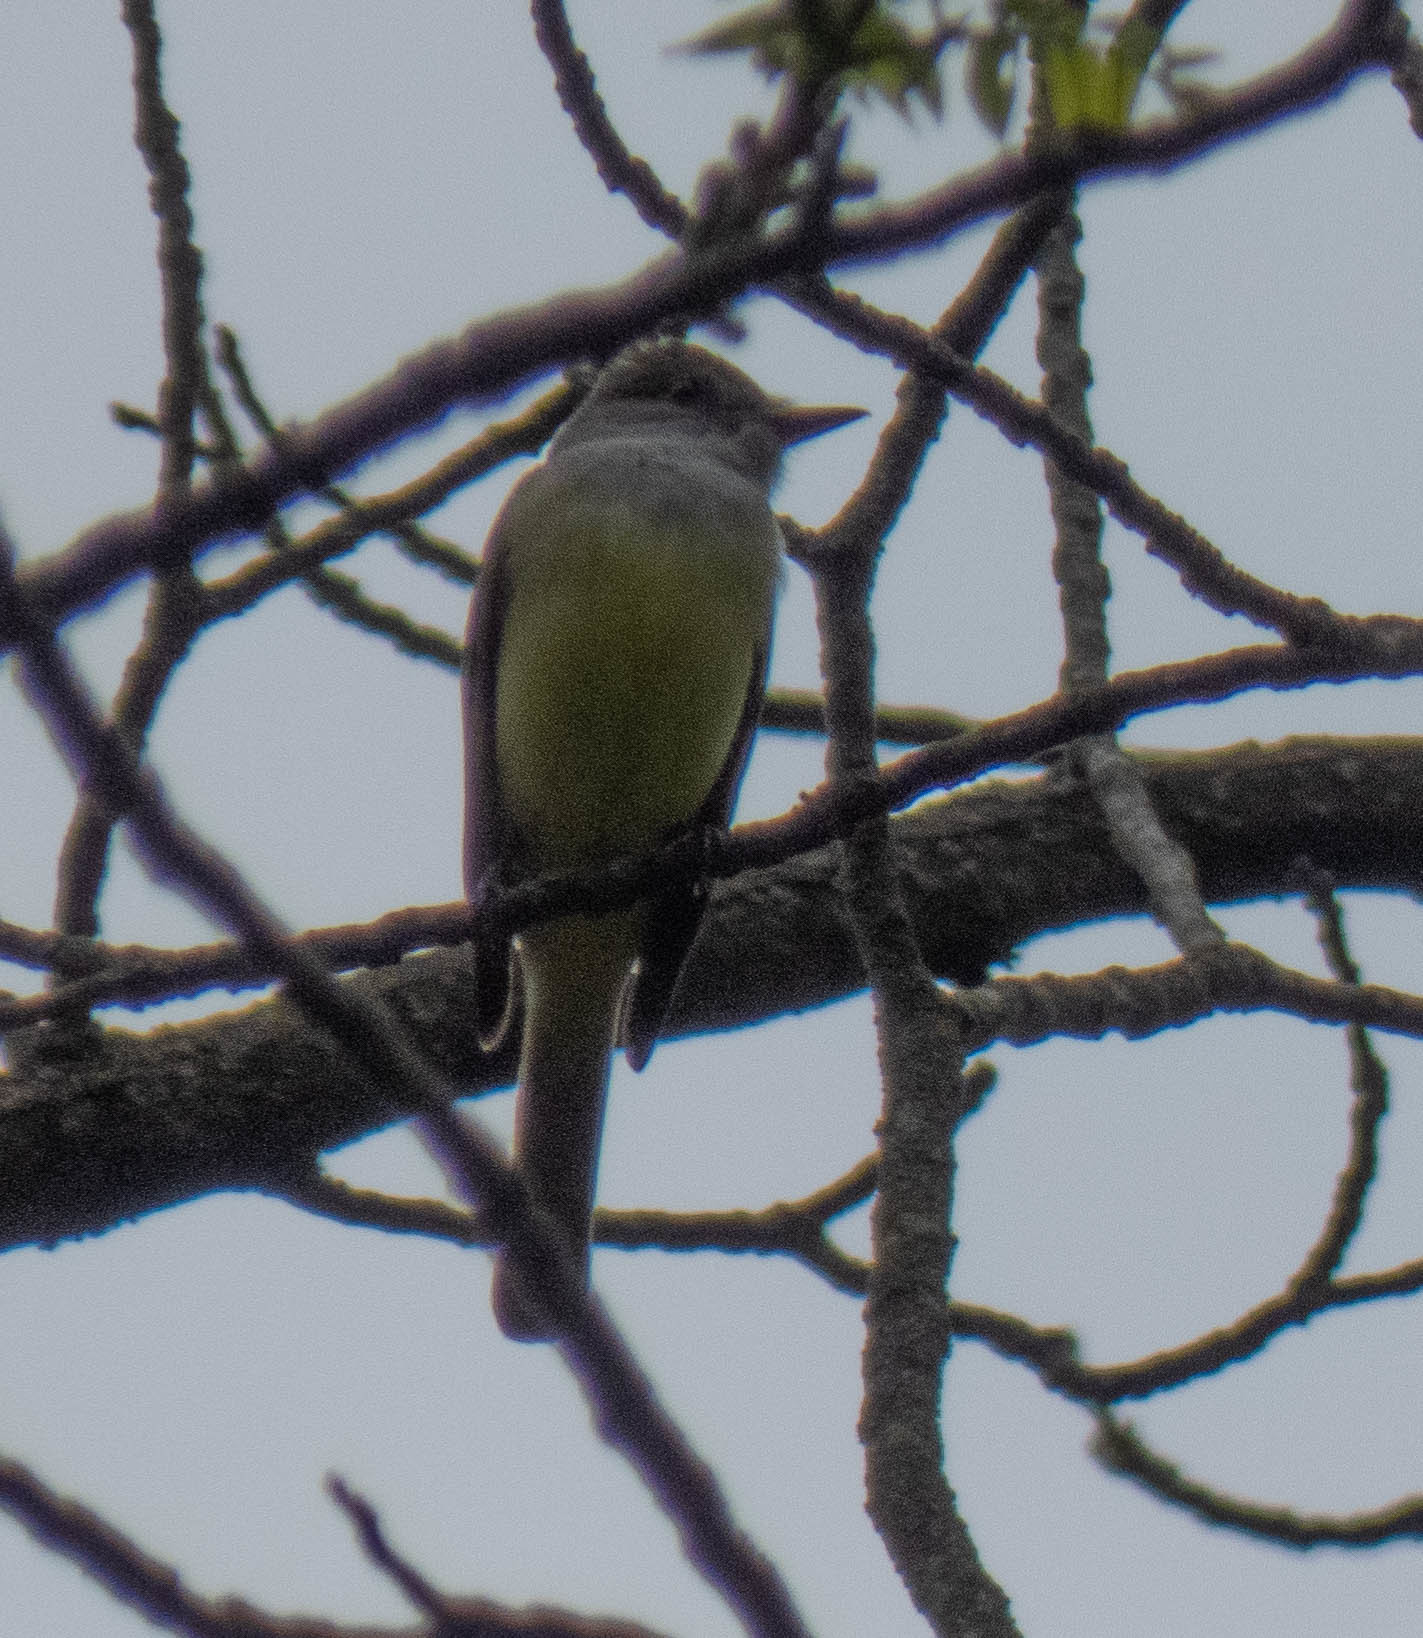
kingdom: Animalia
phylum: Chordata
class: Aves
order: Passeriformes
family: Tyrannidae
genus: Myiarchus
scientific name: Myiarchus crinitus
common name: Great crested flycatcher
